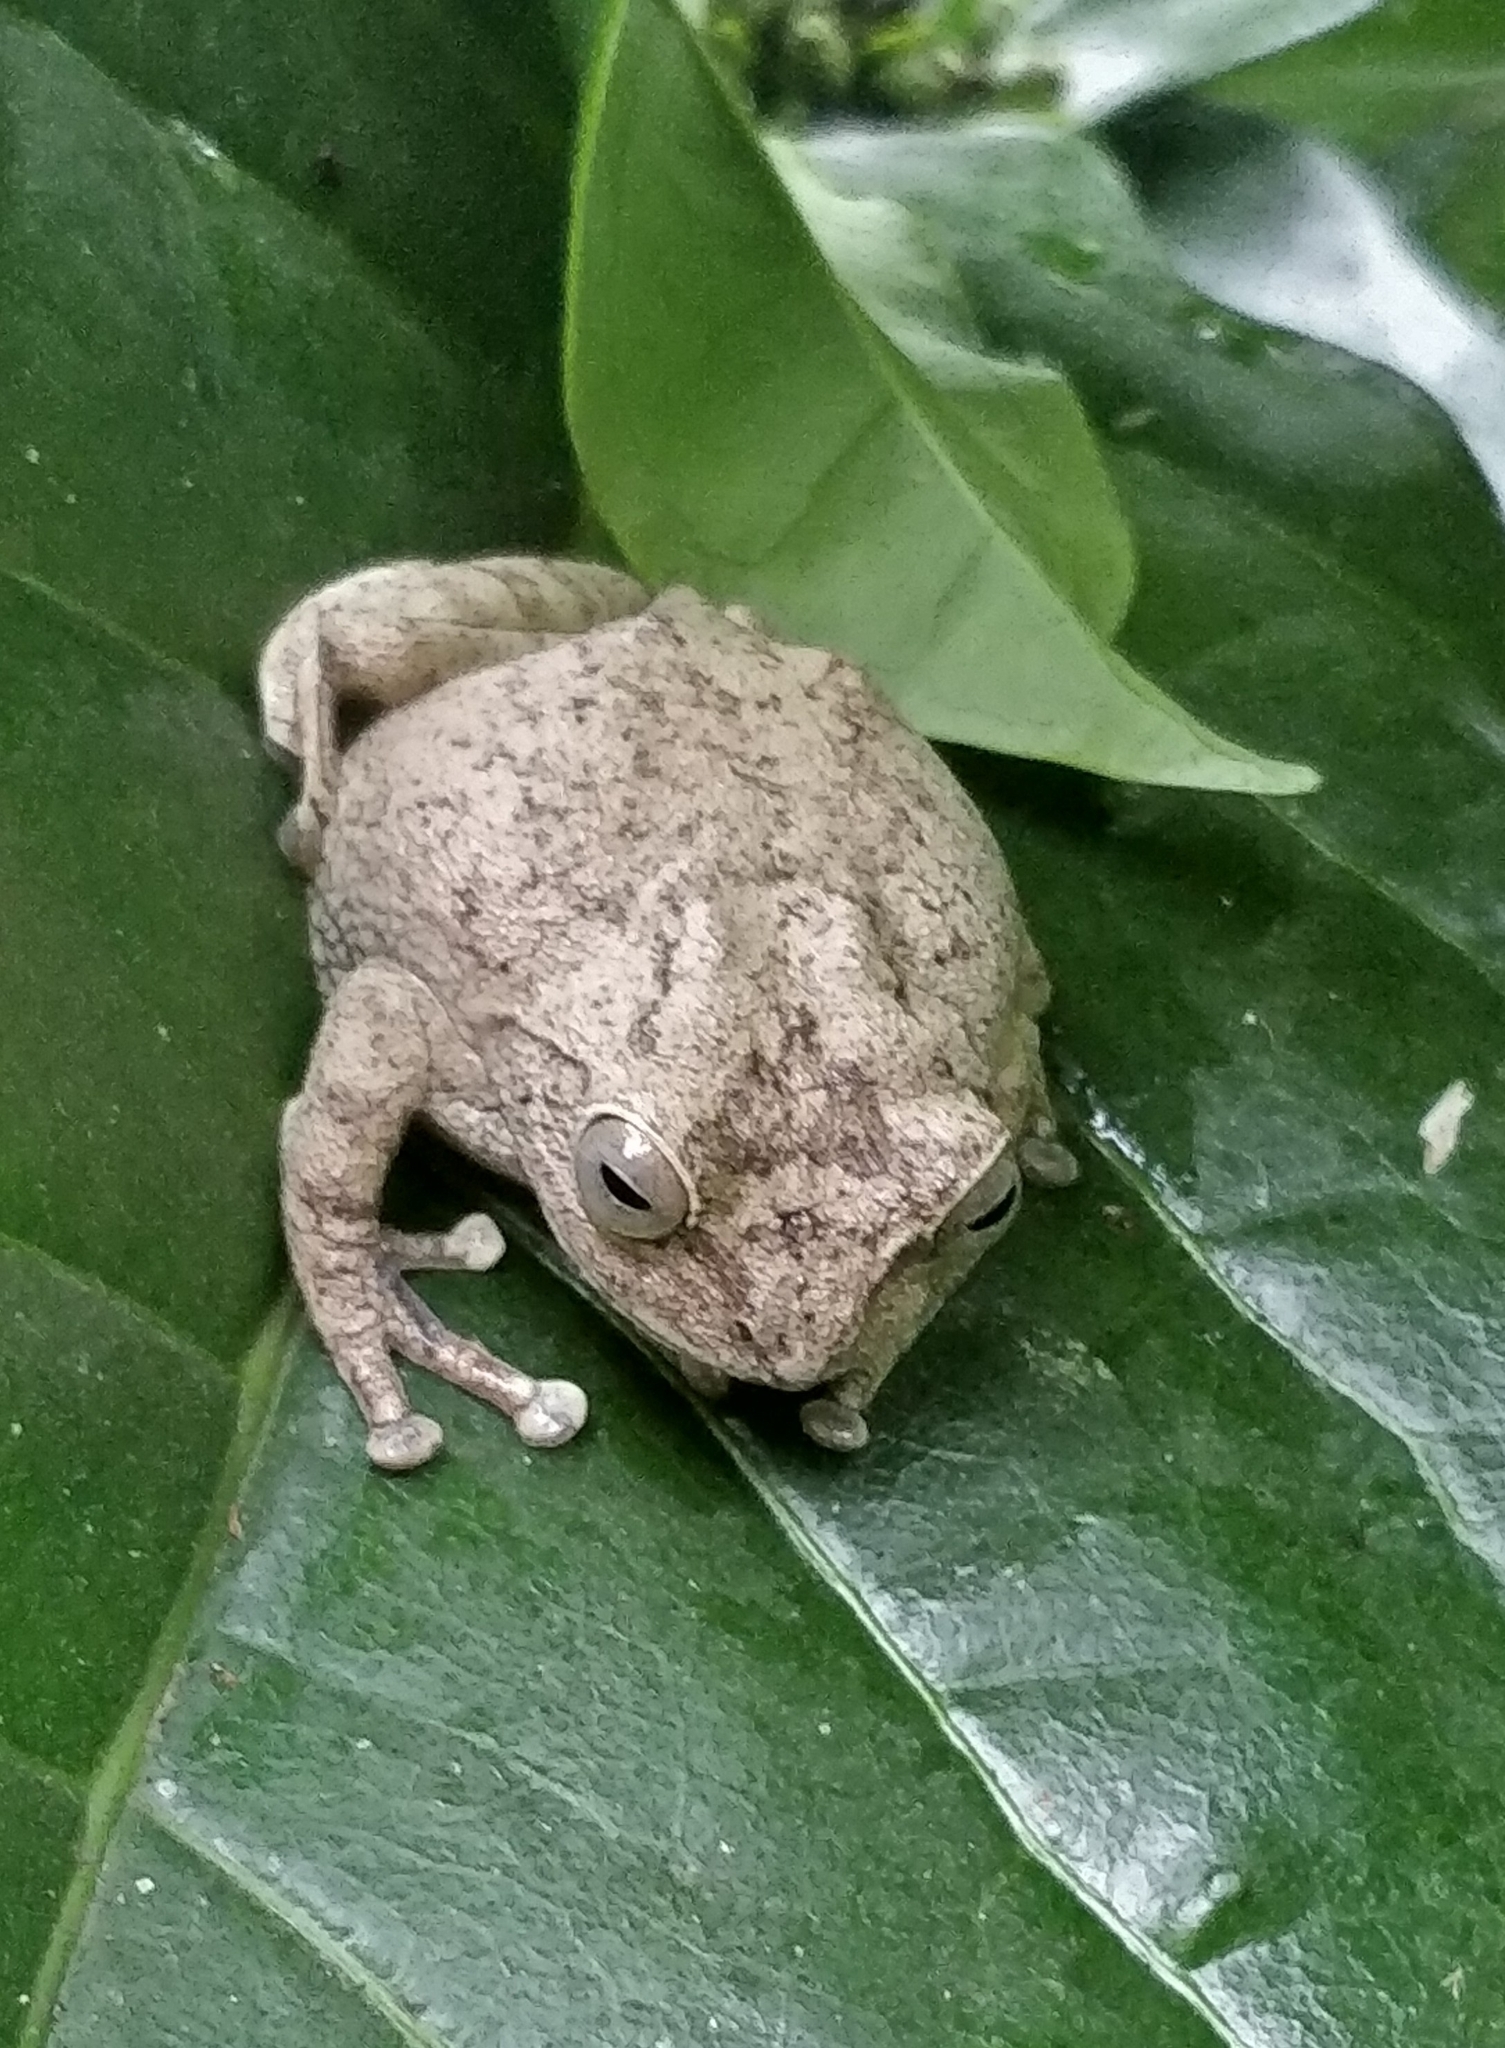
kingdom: Animalia
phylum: Chordata
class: Amphibia
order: Anura
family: Rhacophoridae
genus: Raorchestes
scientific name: Raorchestes hassanensis
